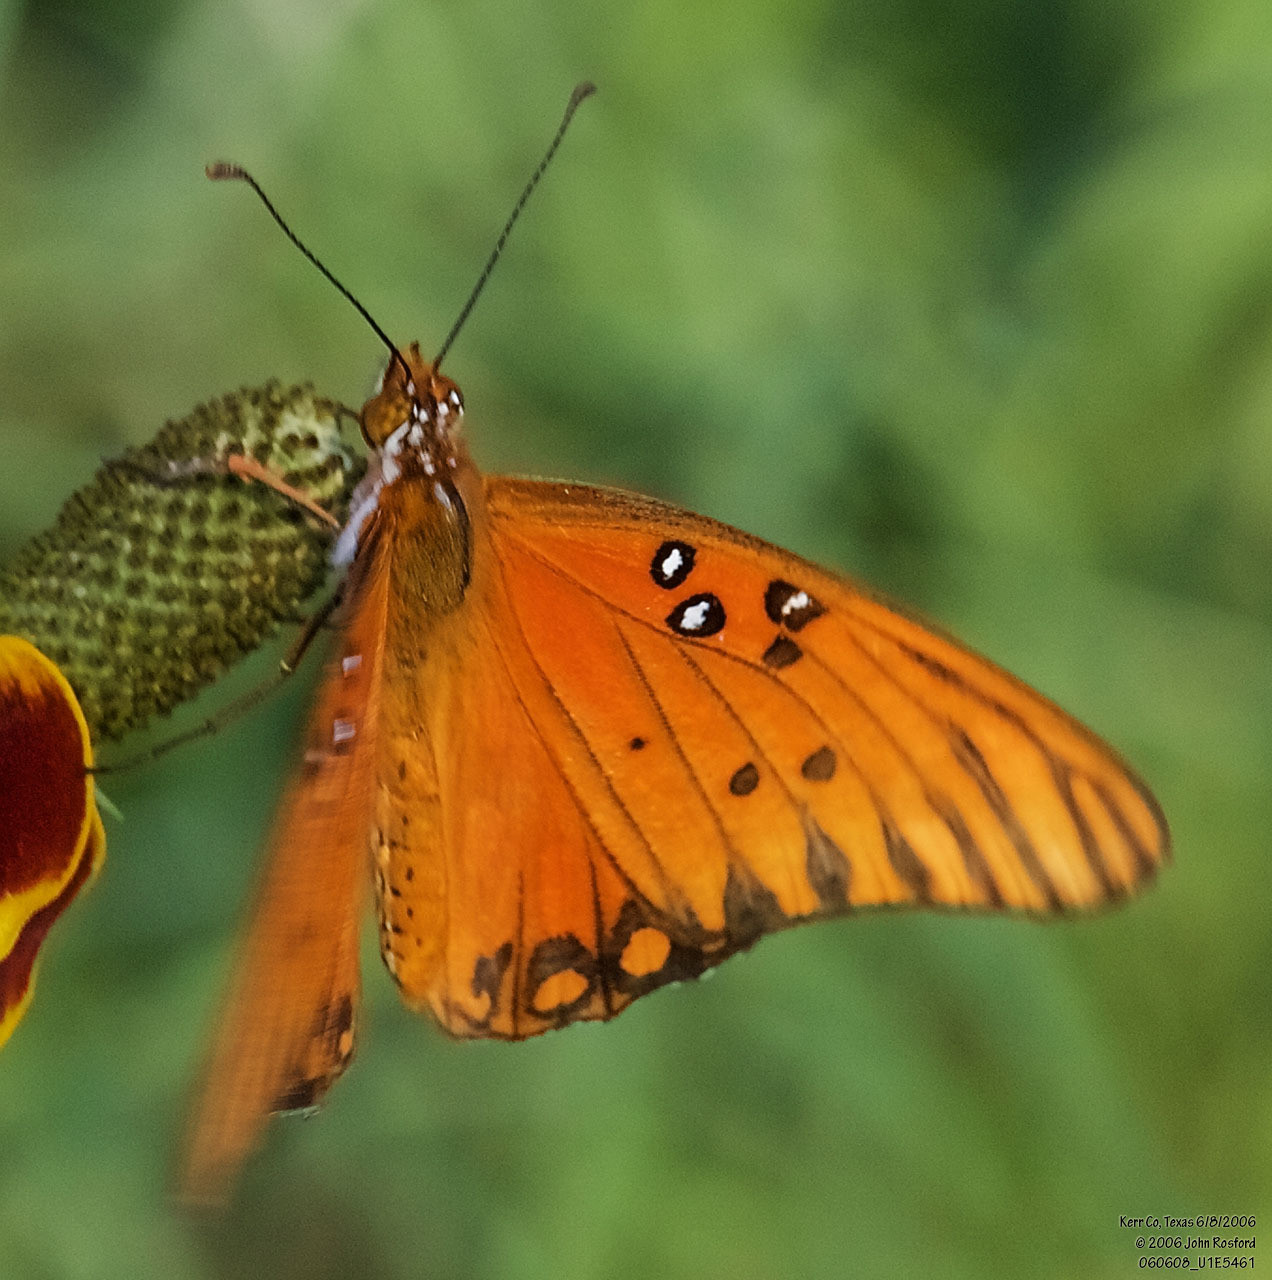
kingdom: Animalia
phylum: Arthropoda
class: Insecta
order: Lepidoptera
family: Nymphalidae
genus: Dione
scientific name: Dione vanillae
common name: Gulf fritillary
